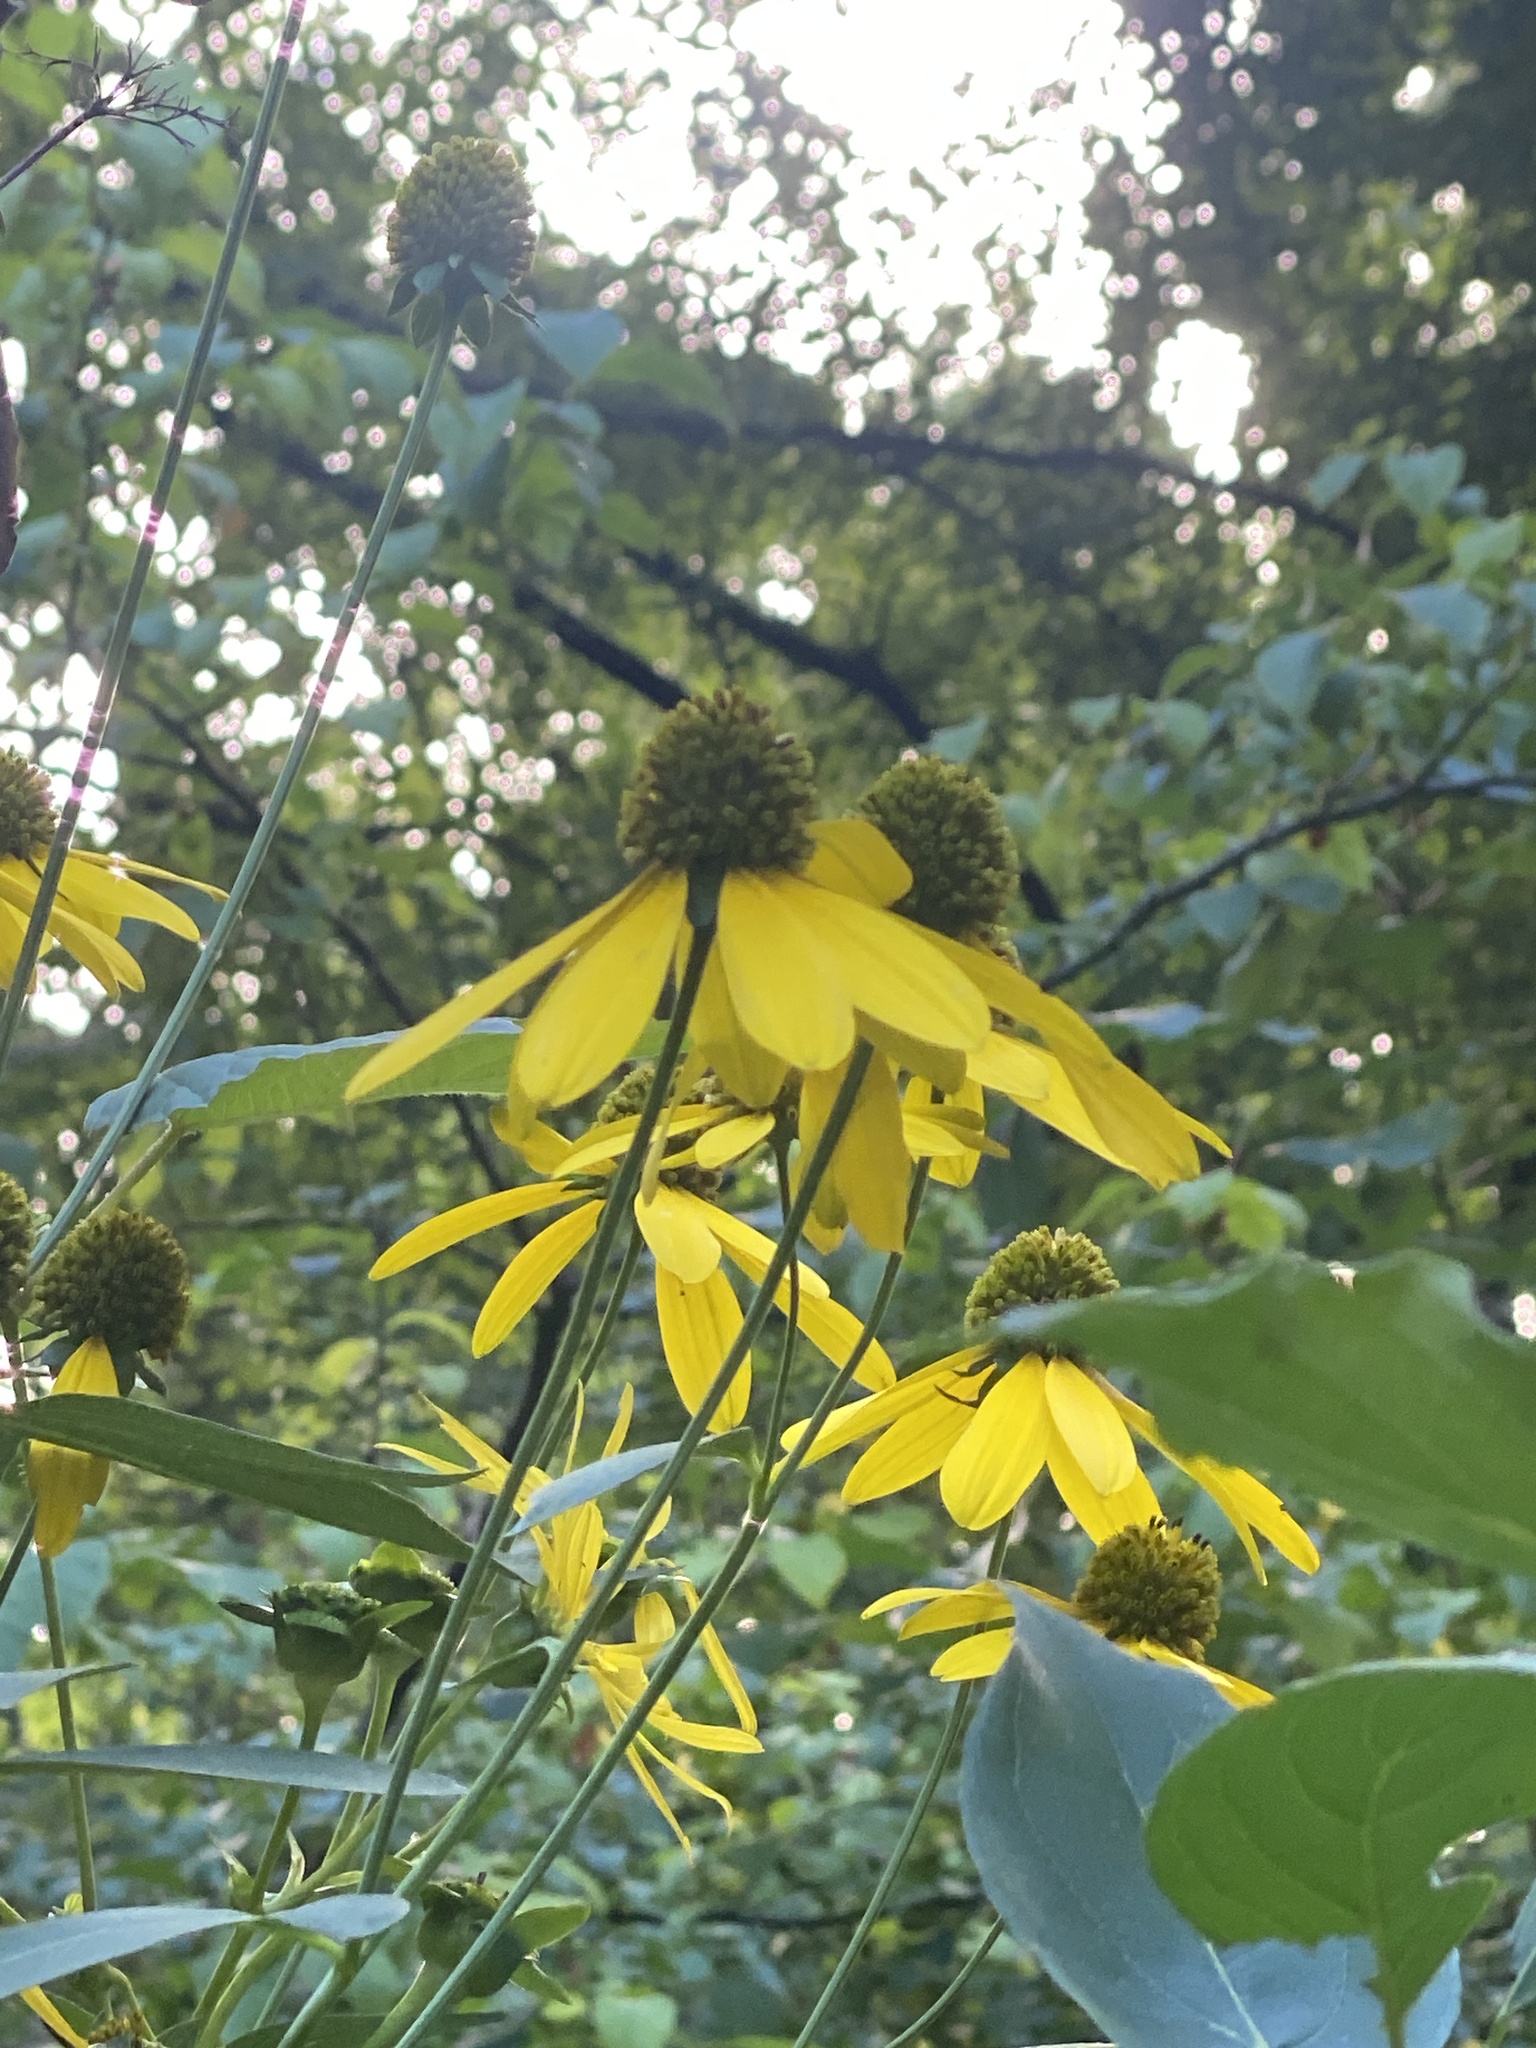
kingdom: Plantae
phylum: Tracheophyta
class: Magnoliopsida
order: Asterales
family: Asteraceae
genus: Rudbeckia
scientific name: Rudbeckia laciniata
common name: Coneflower
